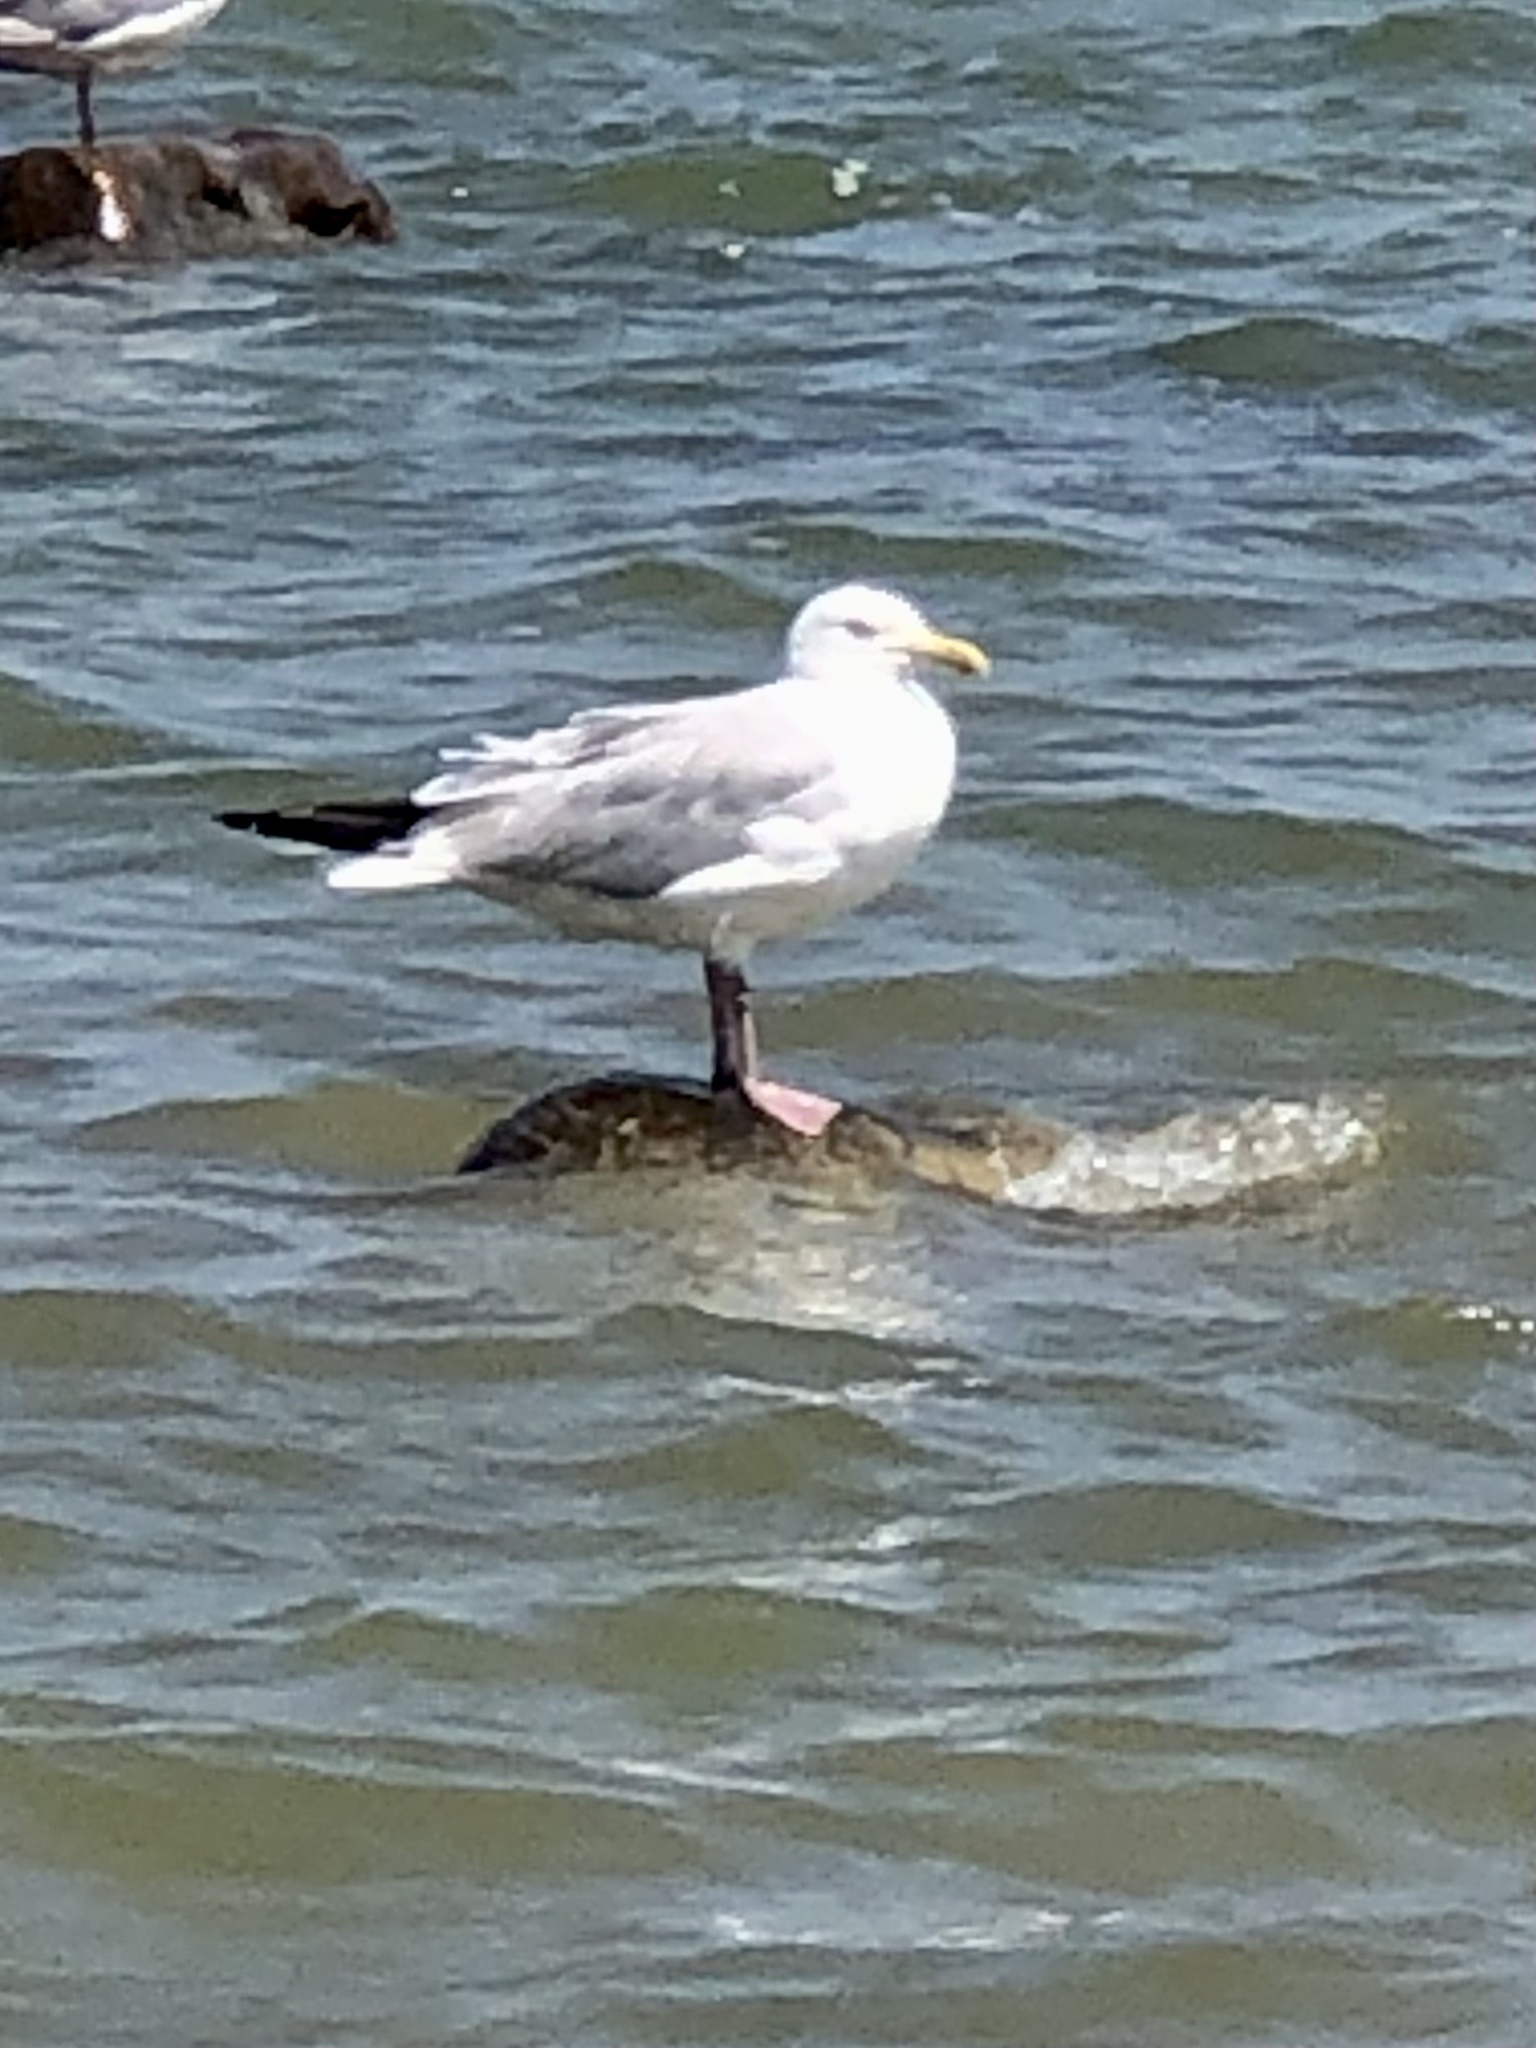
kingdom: Animalia
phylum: Chordata
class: Aves
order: Charadriiformes
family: Laridae
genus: Larus
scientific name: Larus argentatus
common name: Herring gull
